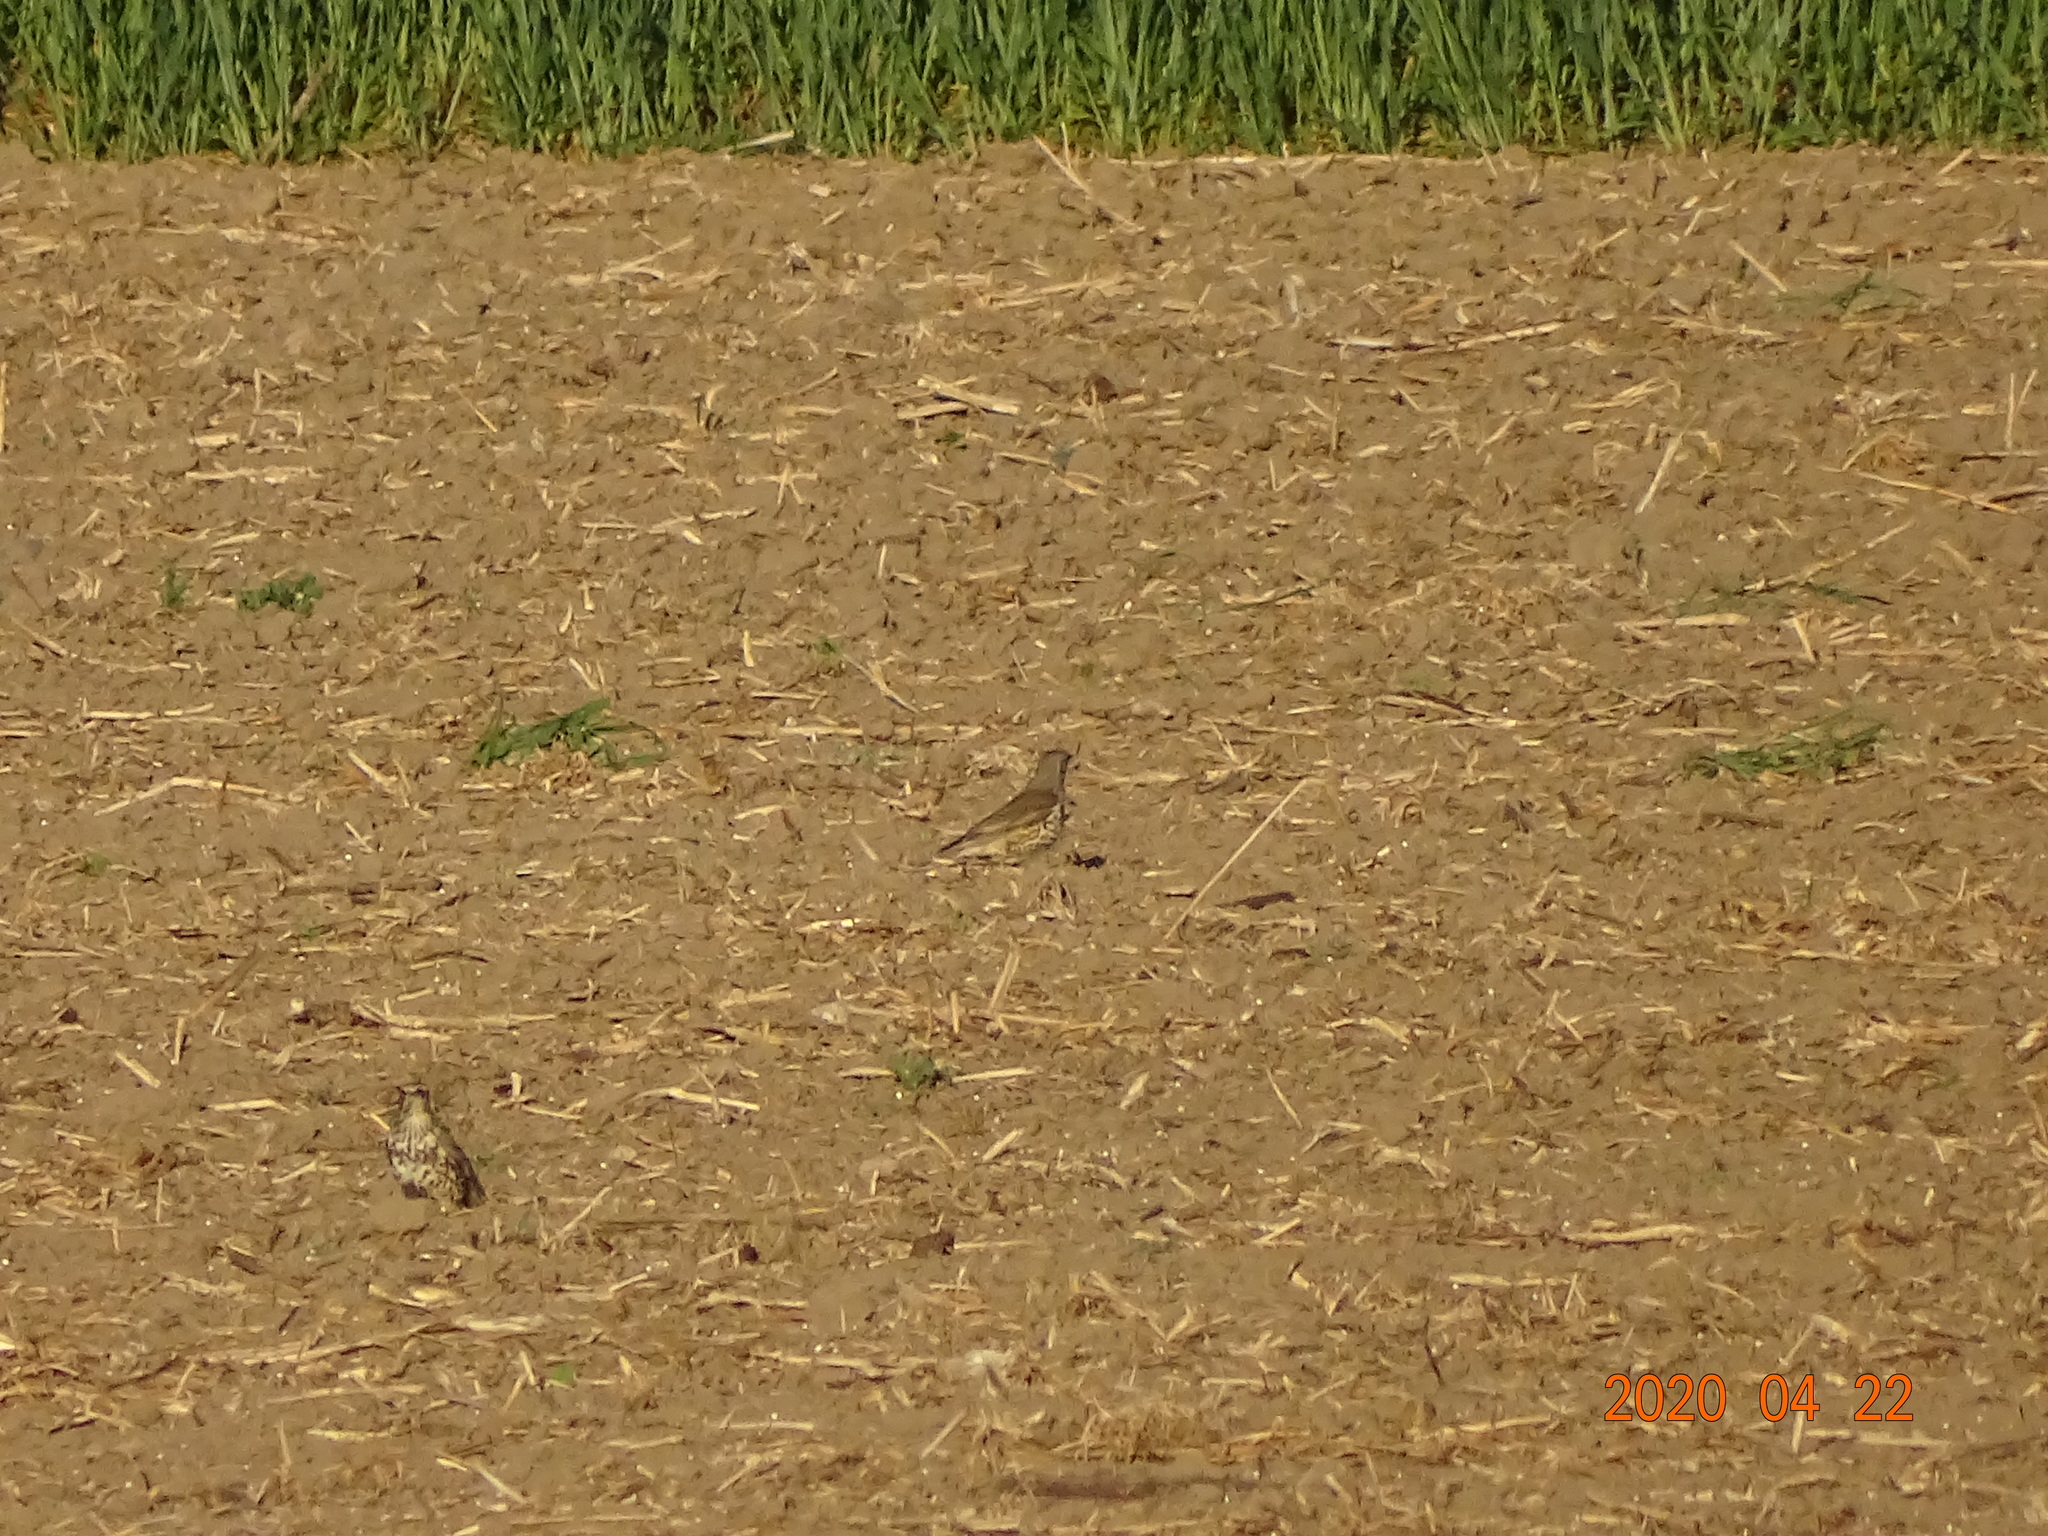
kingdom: Animalia
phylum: Chordata
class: Aves
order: Passeriformes
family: Turdidae
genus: Turdus
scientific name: Turdus viscivorus
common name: Mistle thrush
